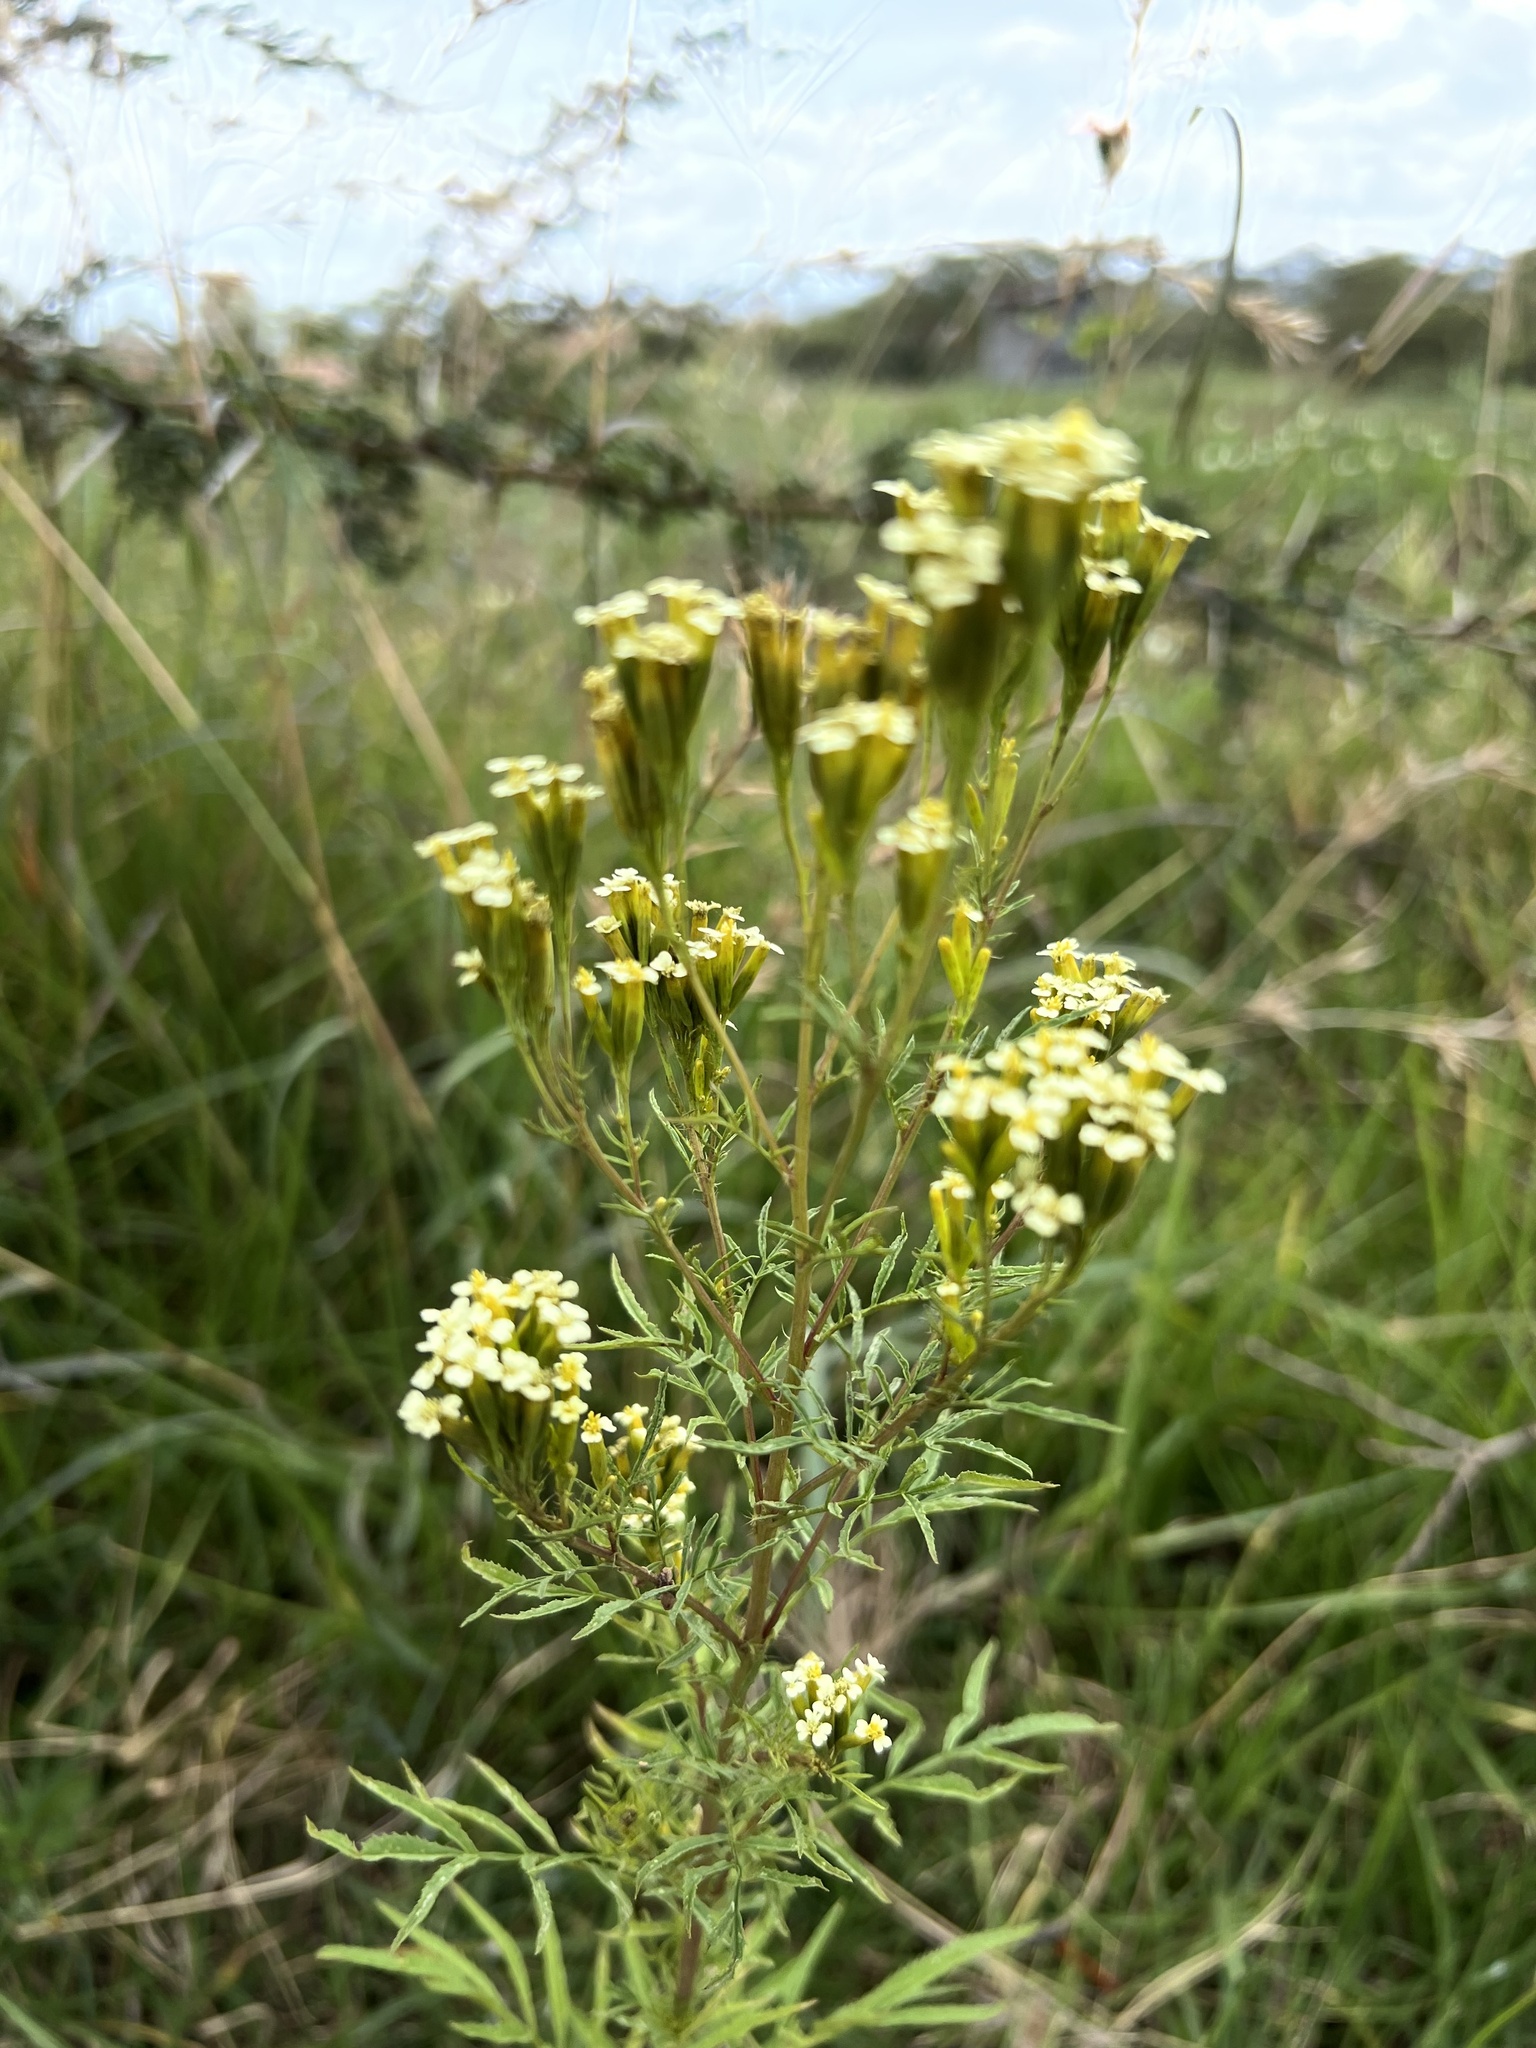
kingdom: Plantae
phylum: Tracheophyta
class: Magnoliopsida
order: Asterales
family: Asteraceae
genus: Tagetes
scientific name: Tagetes minuta
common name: Muster john henry
